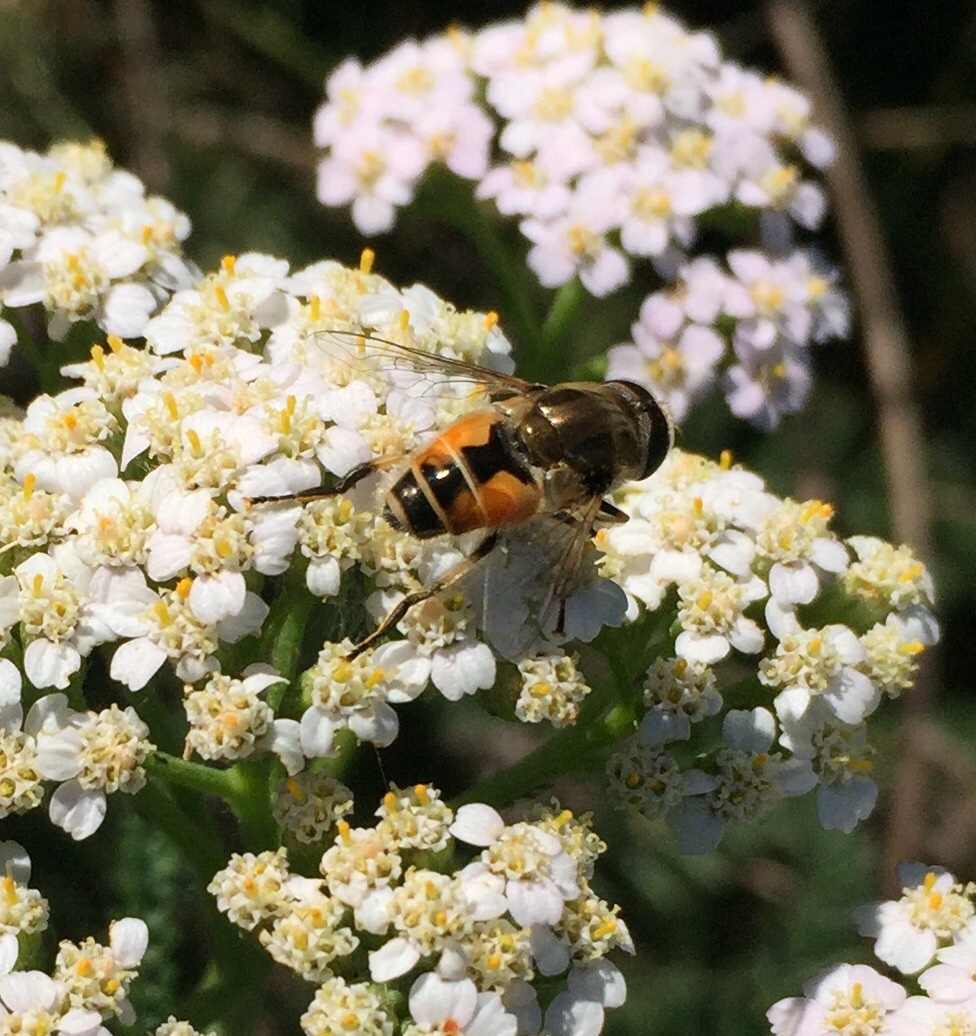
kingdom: Animalia
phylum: Arthropoda
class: Insecta
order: Diptera
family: Syrphidae
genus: Eristalis
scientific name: Eristalis arbustorum
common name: Hover fly
